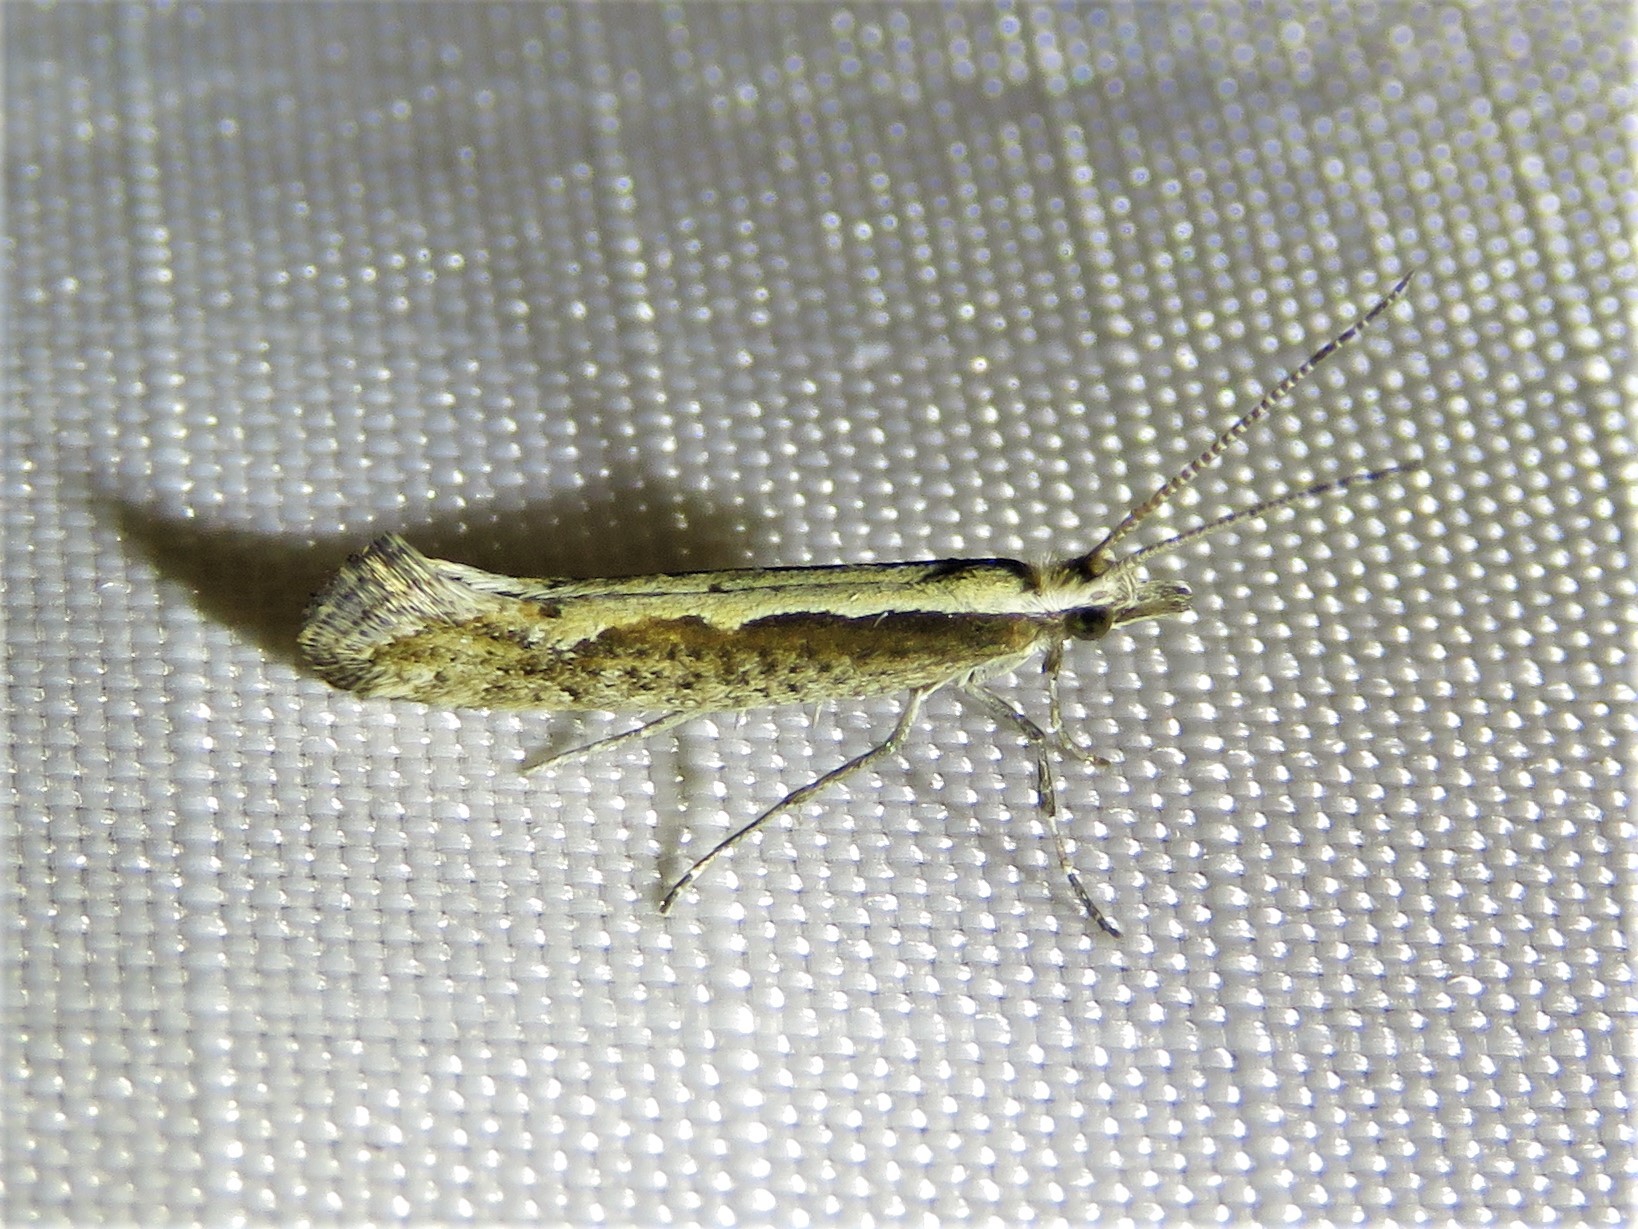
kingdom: Animalia
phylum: Arthropoda
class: Insecta
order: Lepidoptera
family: Plutellidae
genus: Plutella
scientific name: Plutella xylostella
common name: Diamond-back moth
